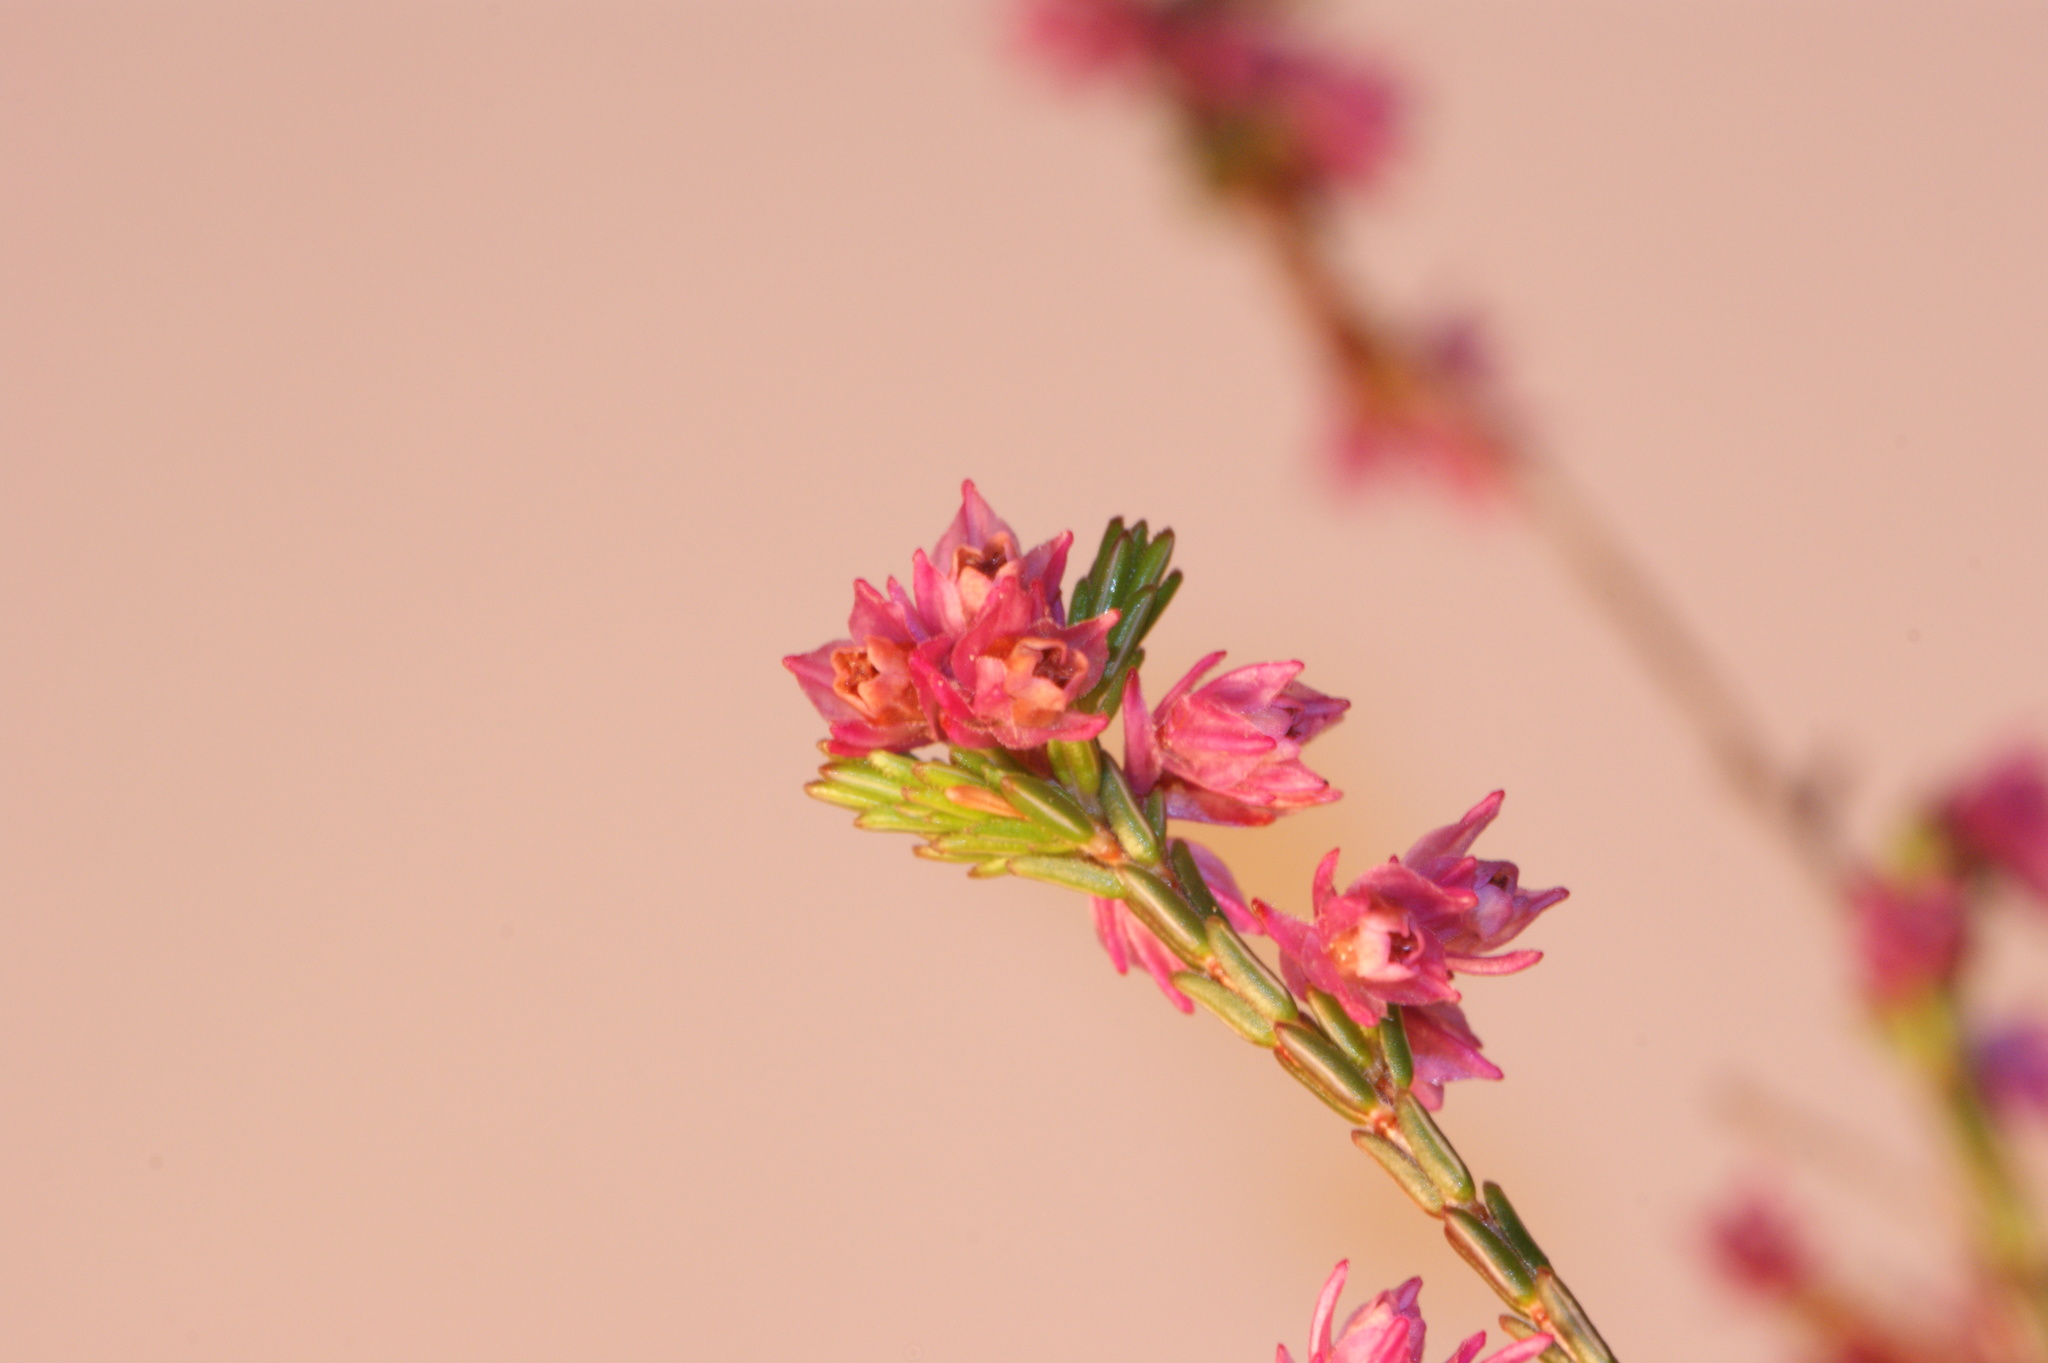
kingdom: Plantae
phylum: Tracheophyta
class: Magnoliopsida
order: Ericales
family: Ericaceae
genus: Erica
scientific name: Erica gnaphaloides
